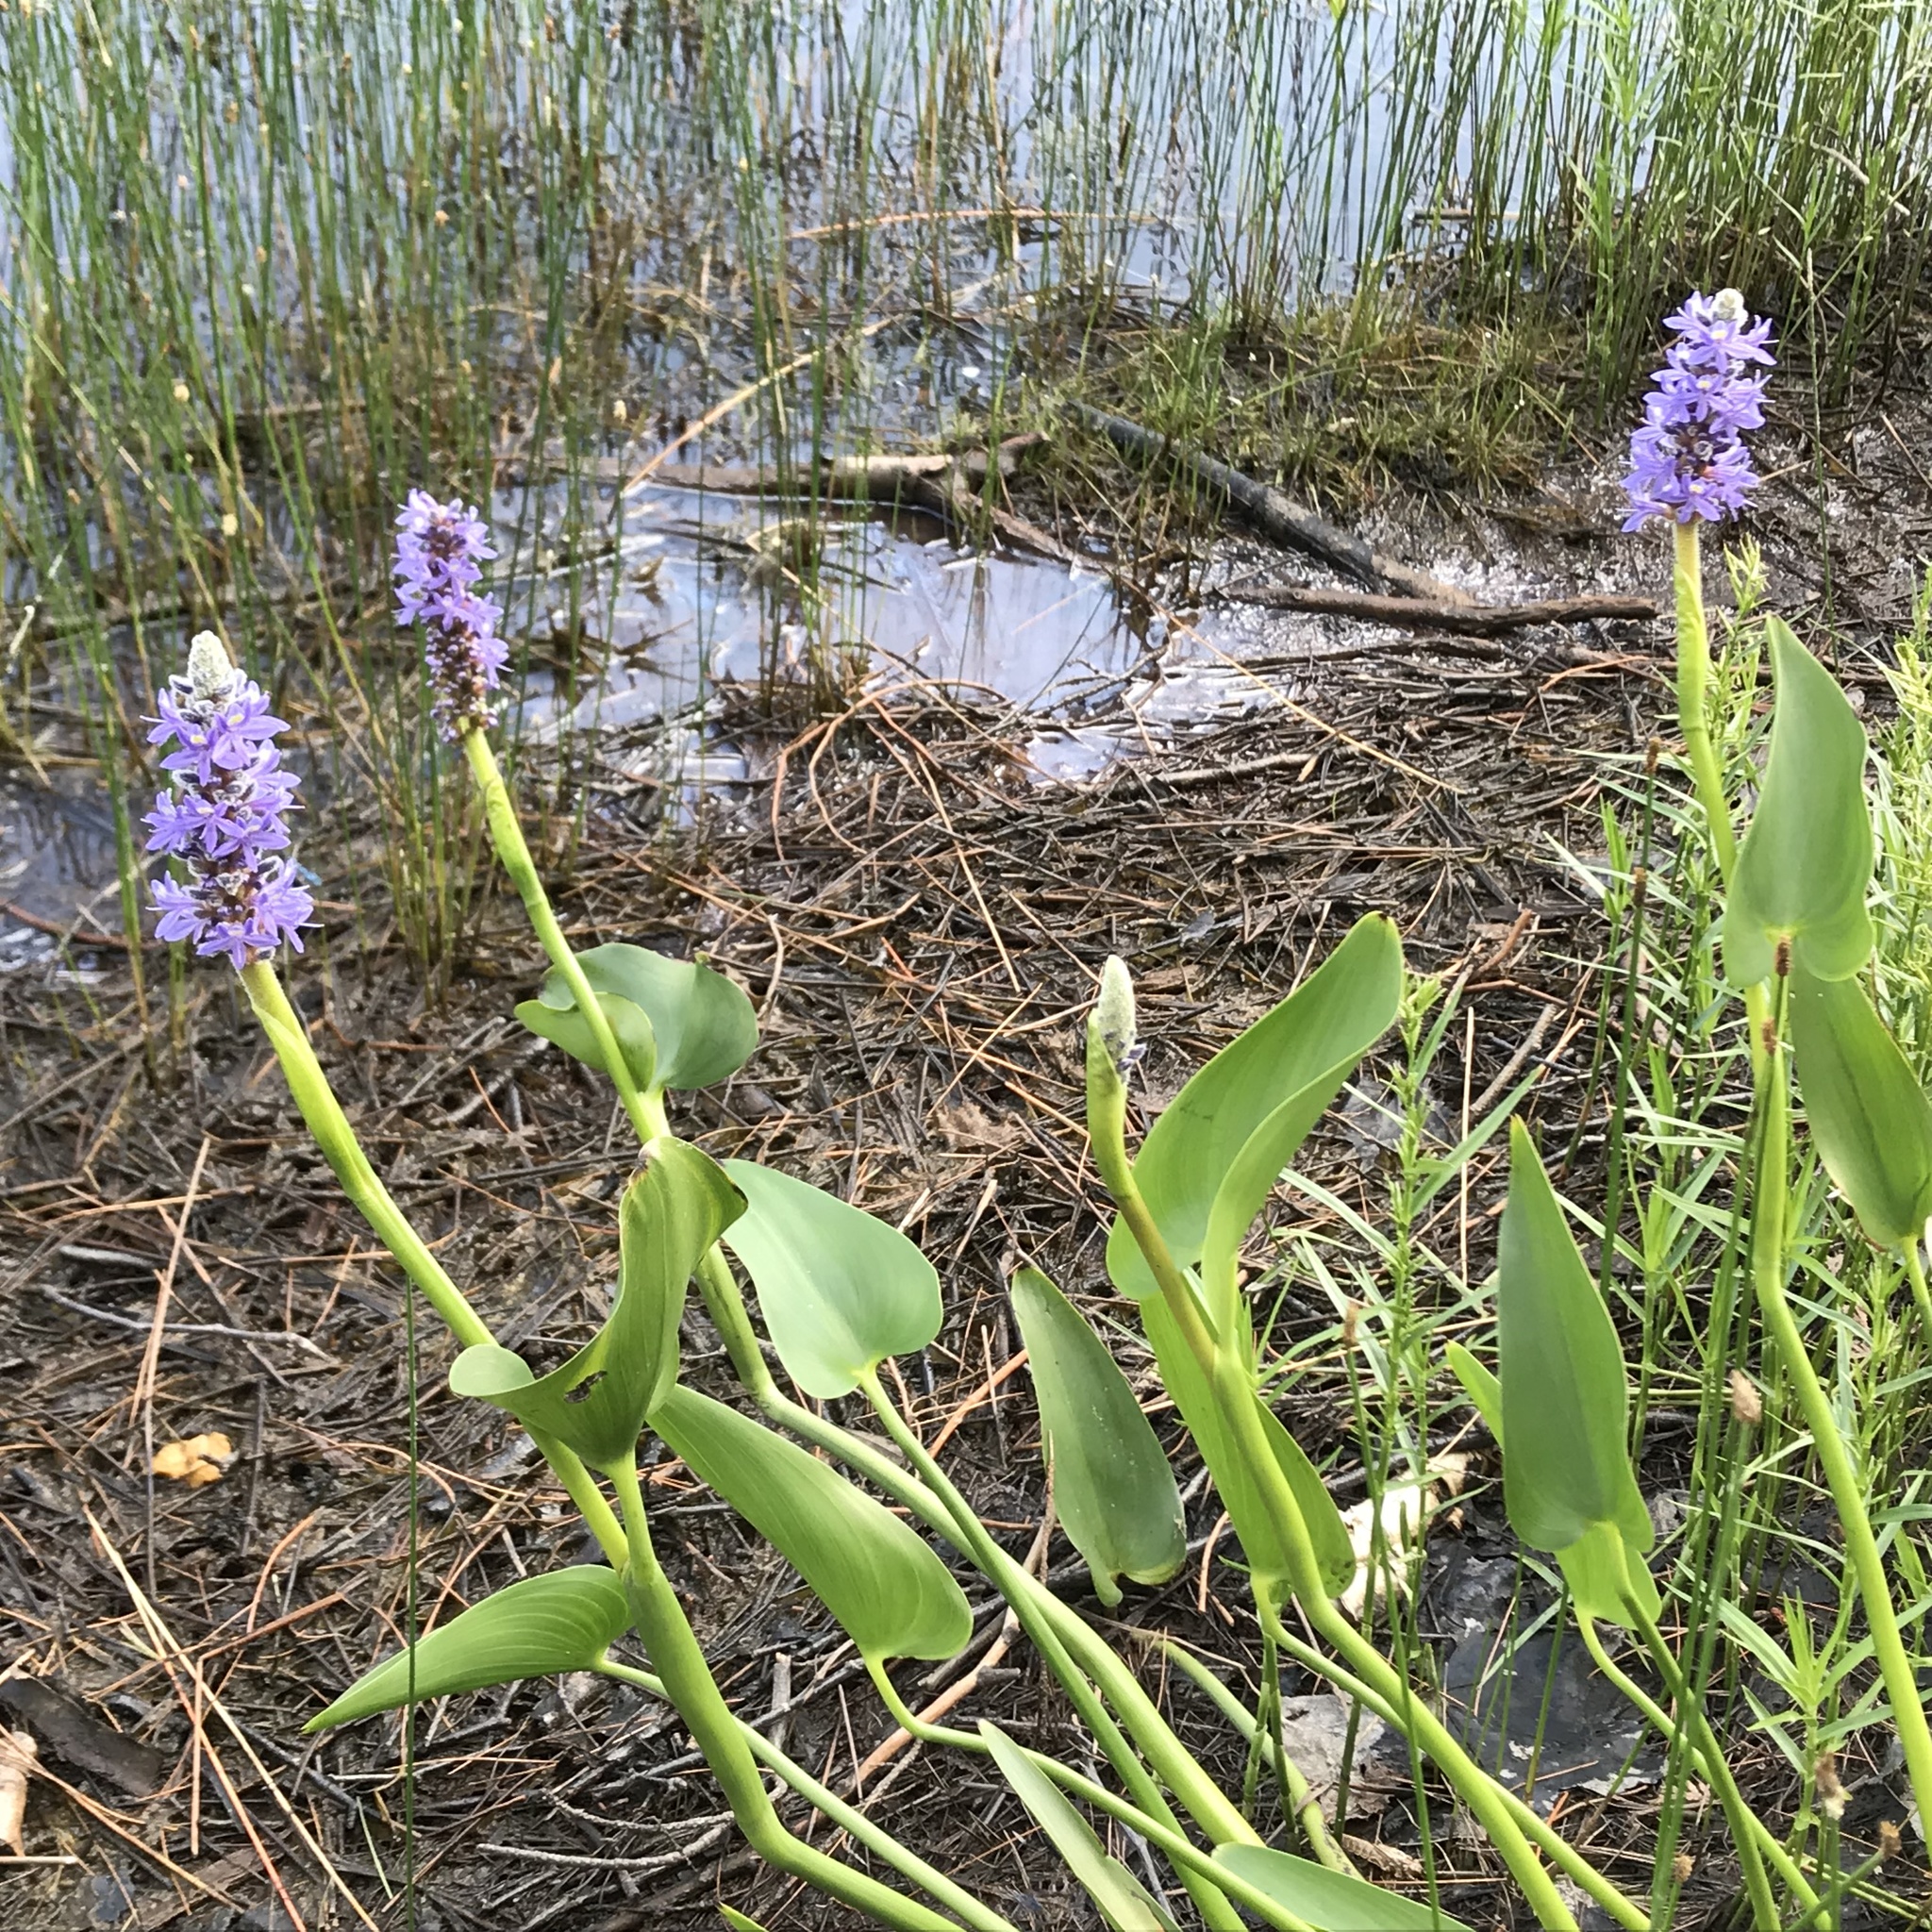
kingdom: Plantae
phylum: Tracheophyta
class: Liliopsida
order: Commelinales
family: Pontederiaceae
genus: Pontederia
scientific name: Pontederia cordata
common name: Pickerelweed
